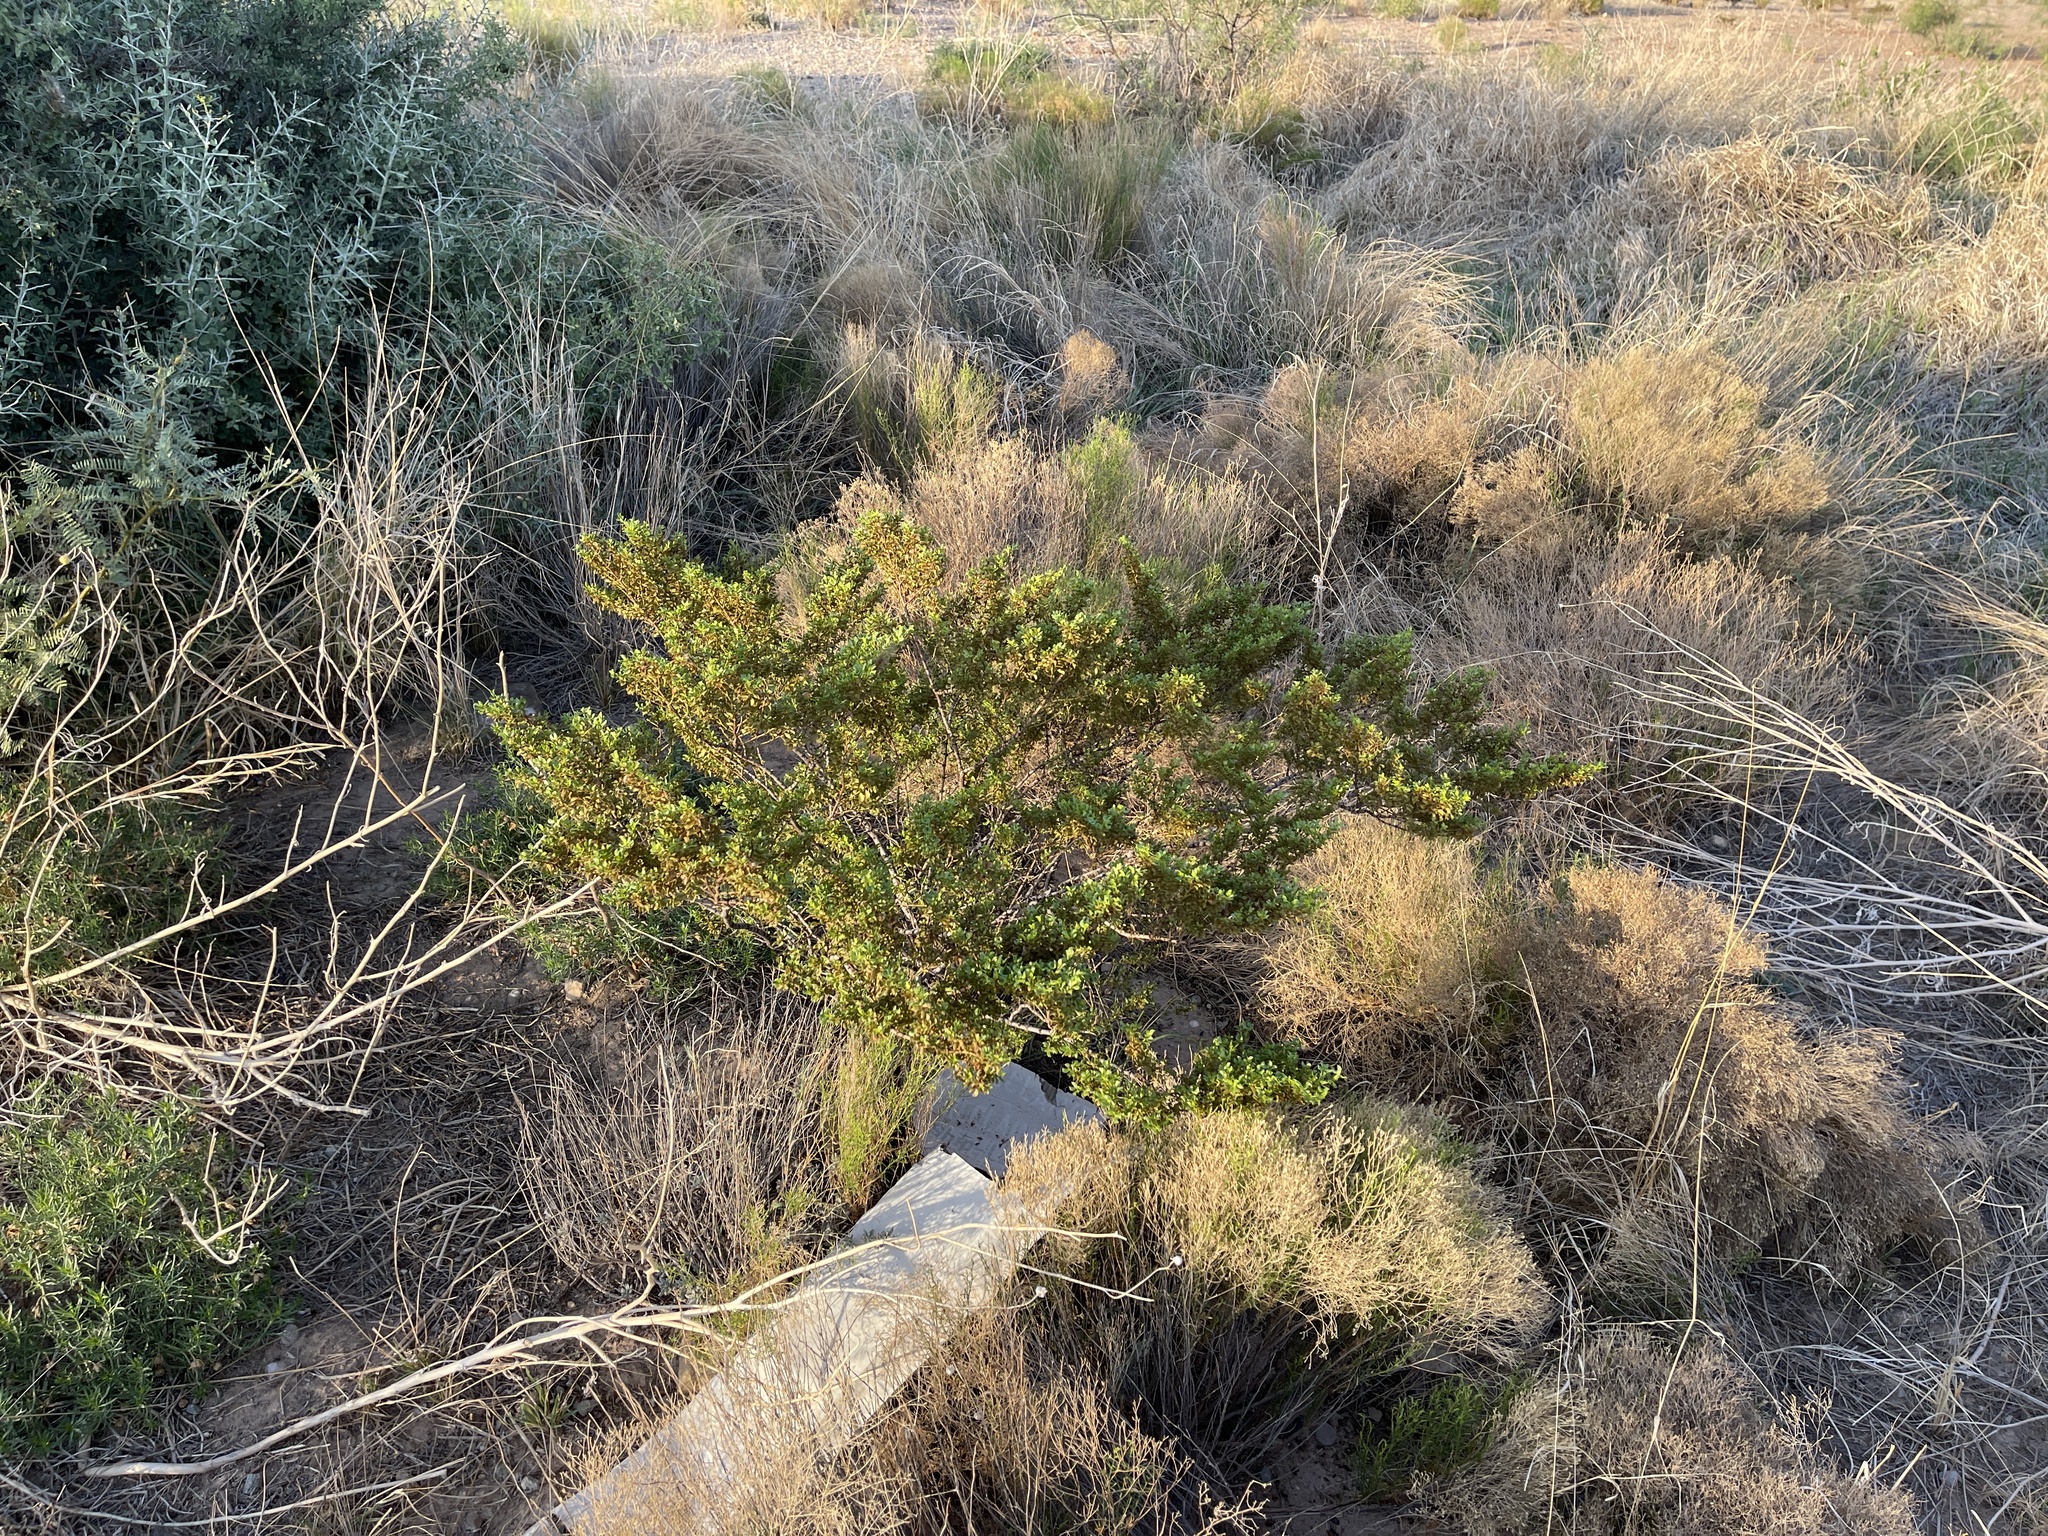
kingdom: Plantae
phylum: Tracheophyta
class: Magnoliopsida
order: Zygophyllales
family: Zygophyllaceae
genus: Larrea
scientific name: Larrea tridentata
